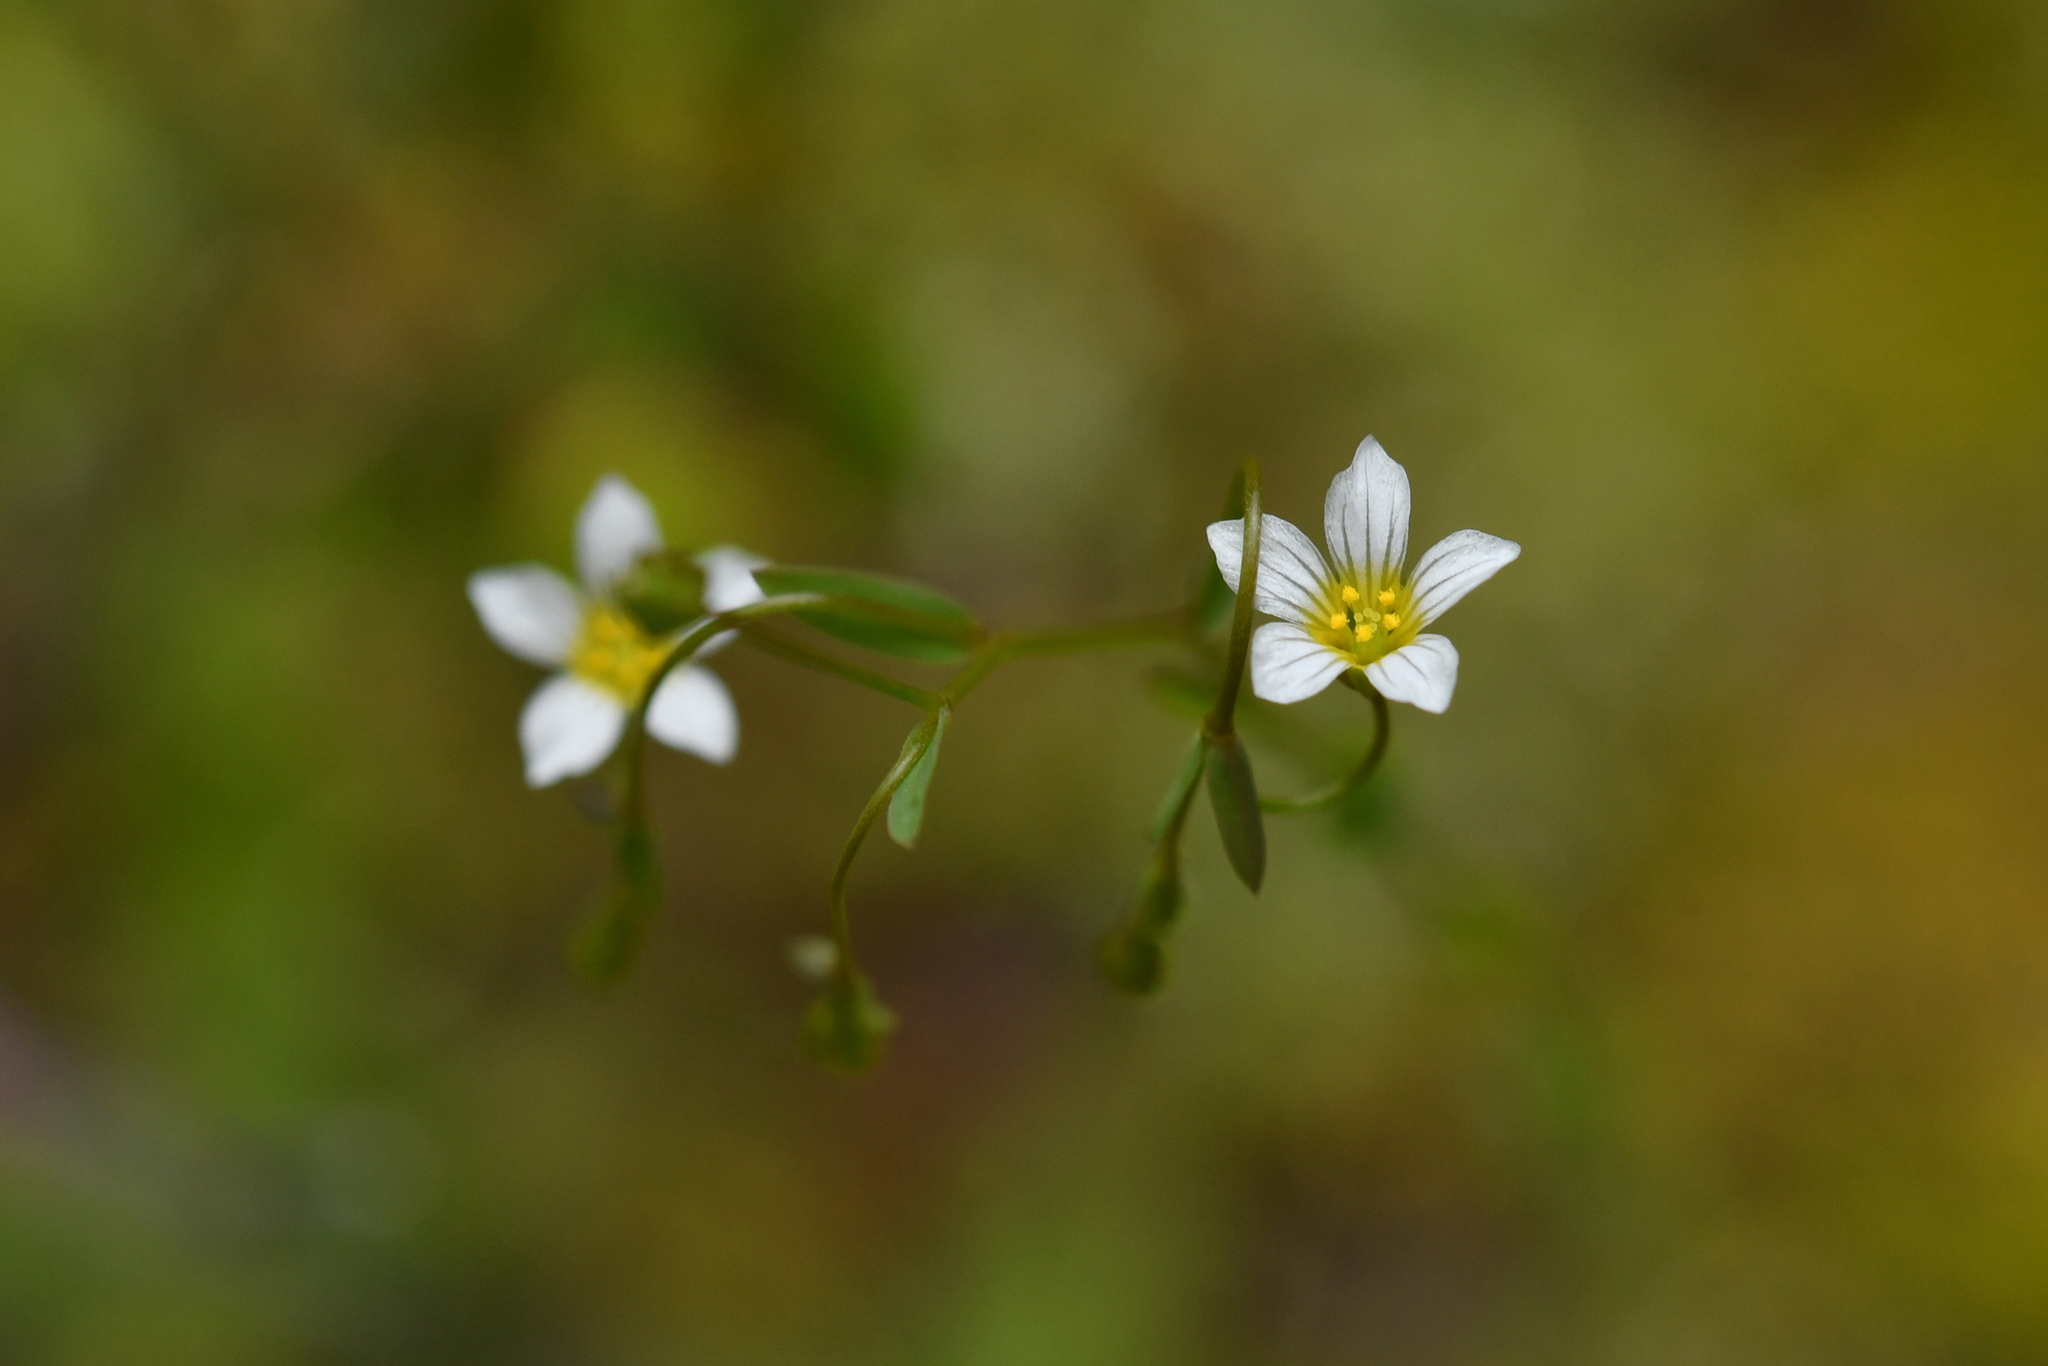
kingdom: Plantae
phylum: Tracheophyta
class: Magnoliopsida
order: Malpighiales
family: Linaceae
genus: Linum
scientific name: Linum catharticum
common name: Fairy flax
